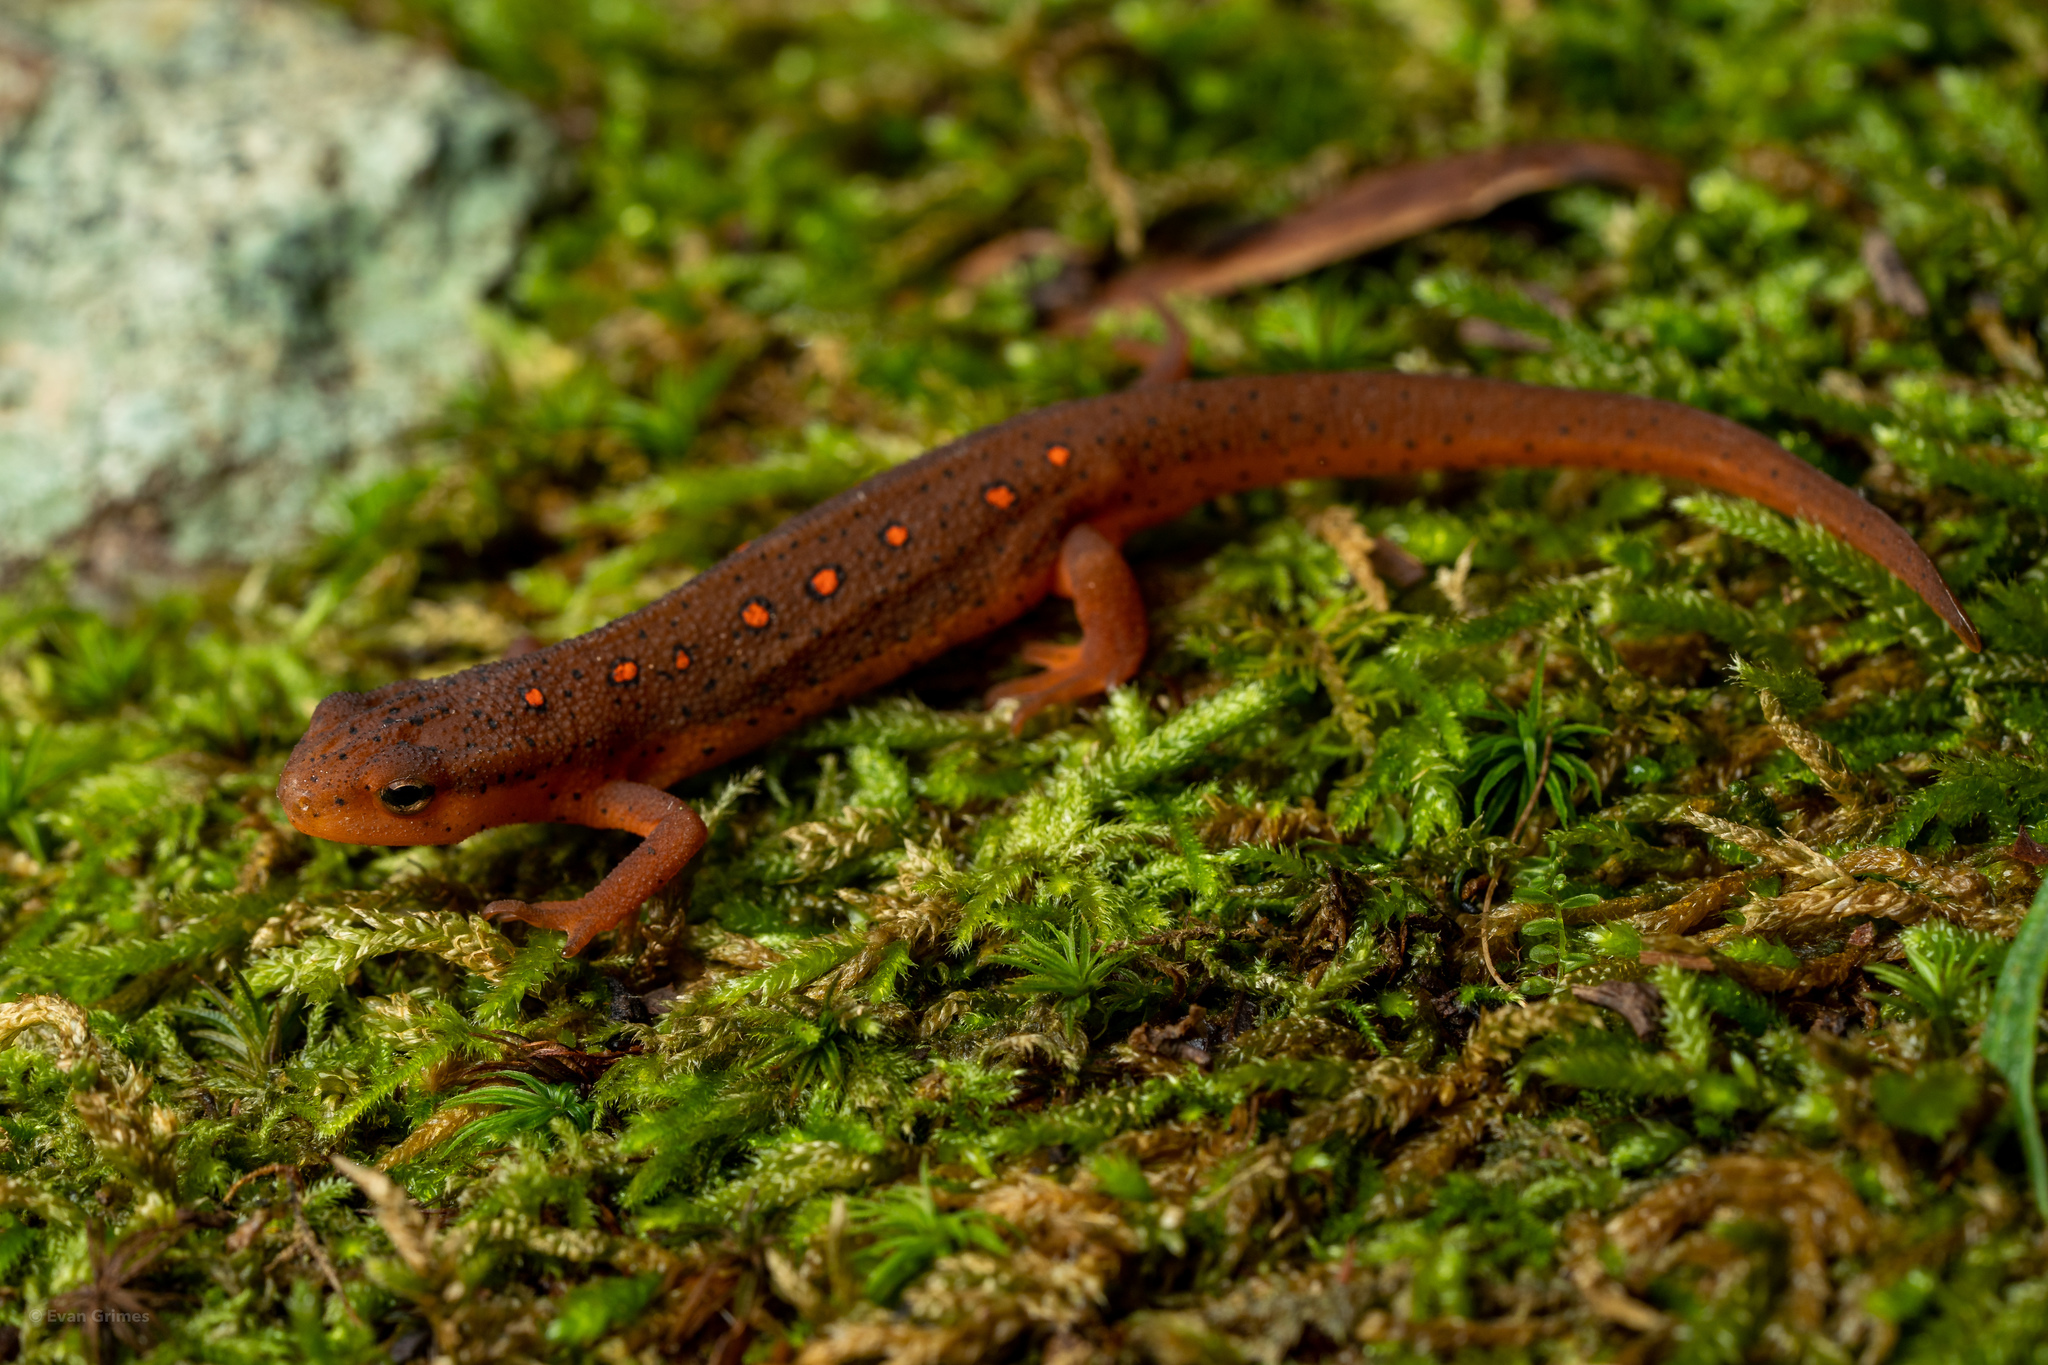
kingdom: Animalia
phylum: Chordata
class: Amphibia
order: Caudata
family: Salamandridae
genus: Notophthalmus
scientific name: Notophthalmus viridescens
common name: Eastern newt
